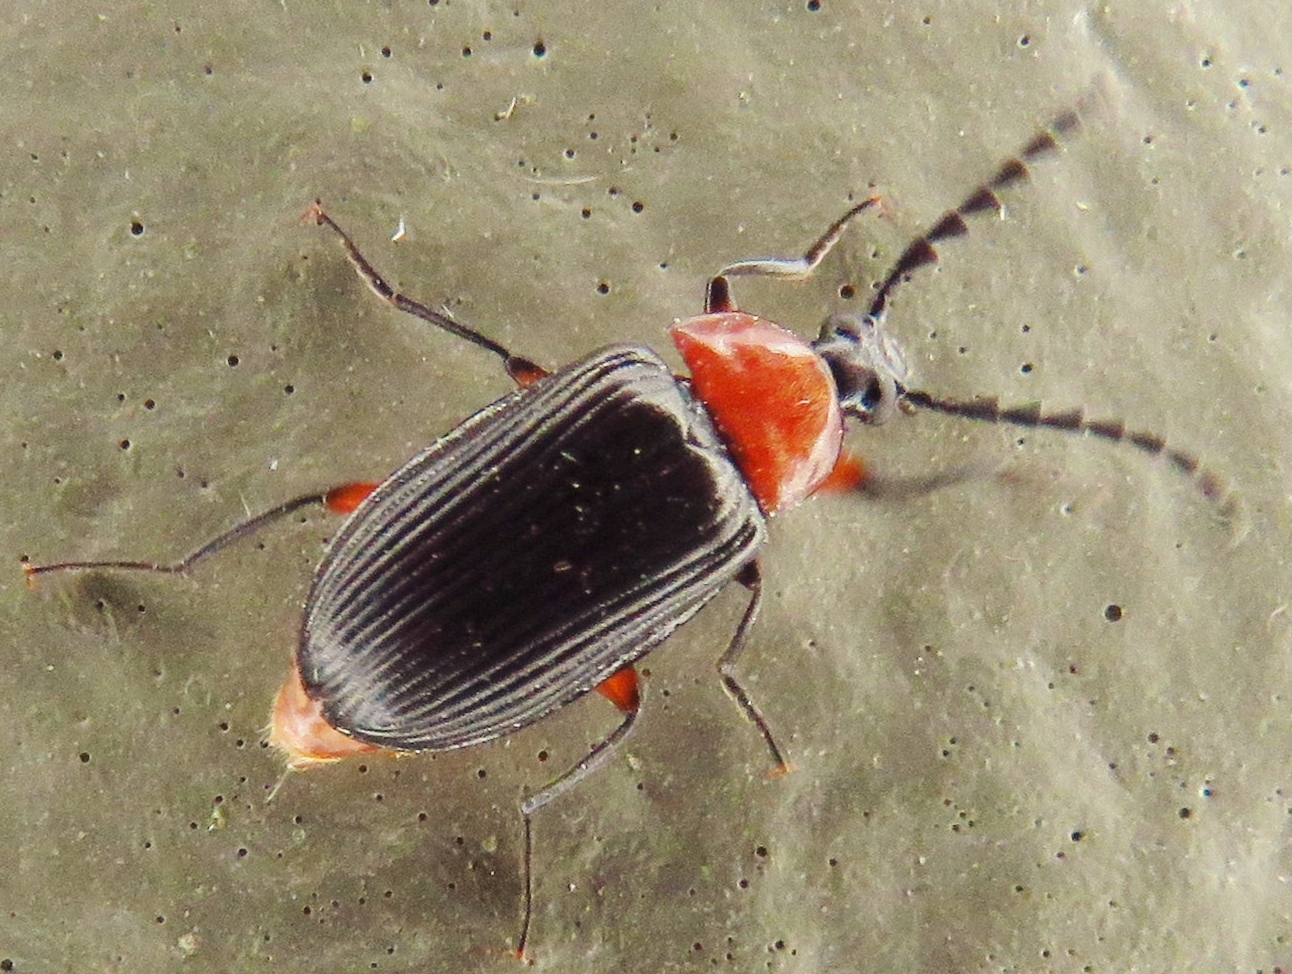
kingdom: Animalia
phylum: Arthropoda
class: Insecta
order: Coleoptera
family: Tenebrionidae
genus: Chromatia
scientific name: Chromatia amoena
